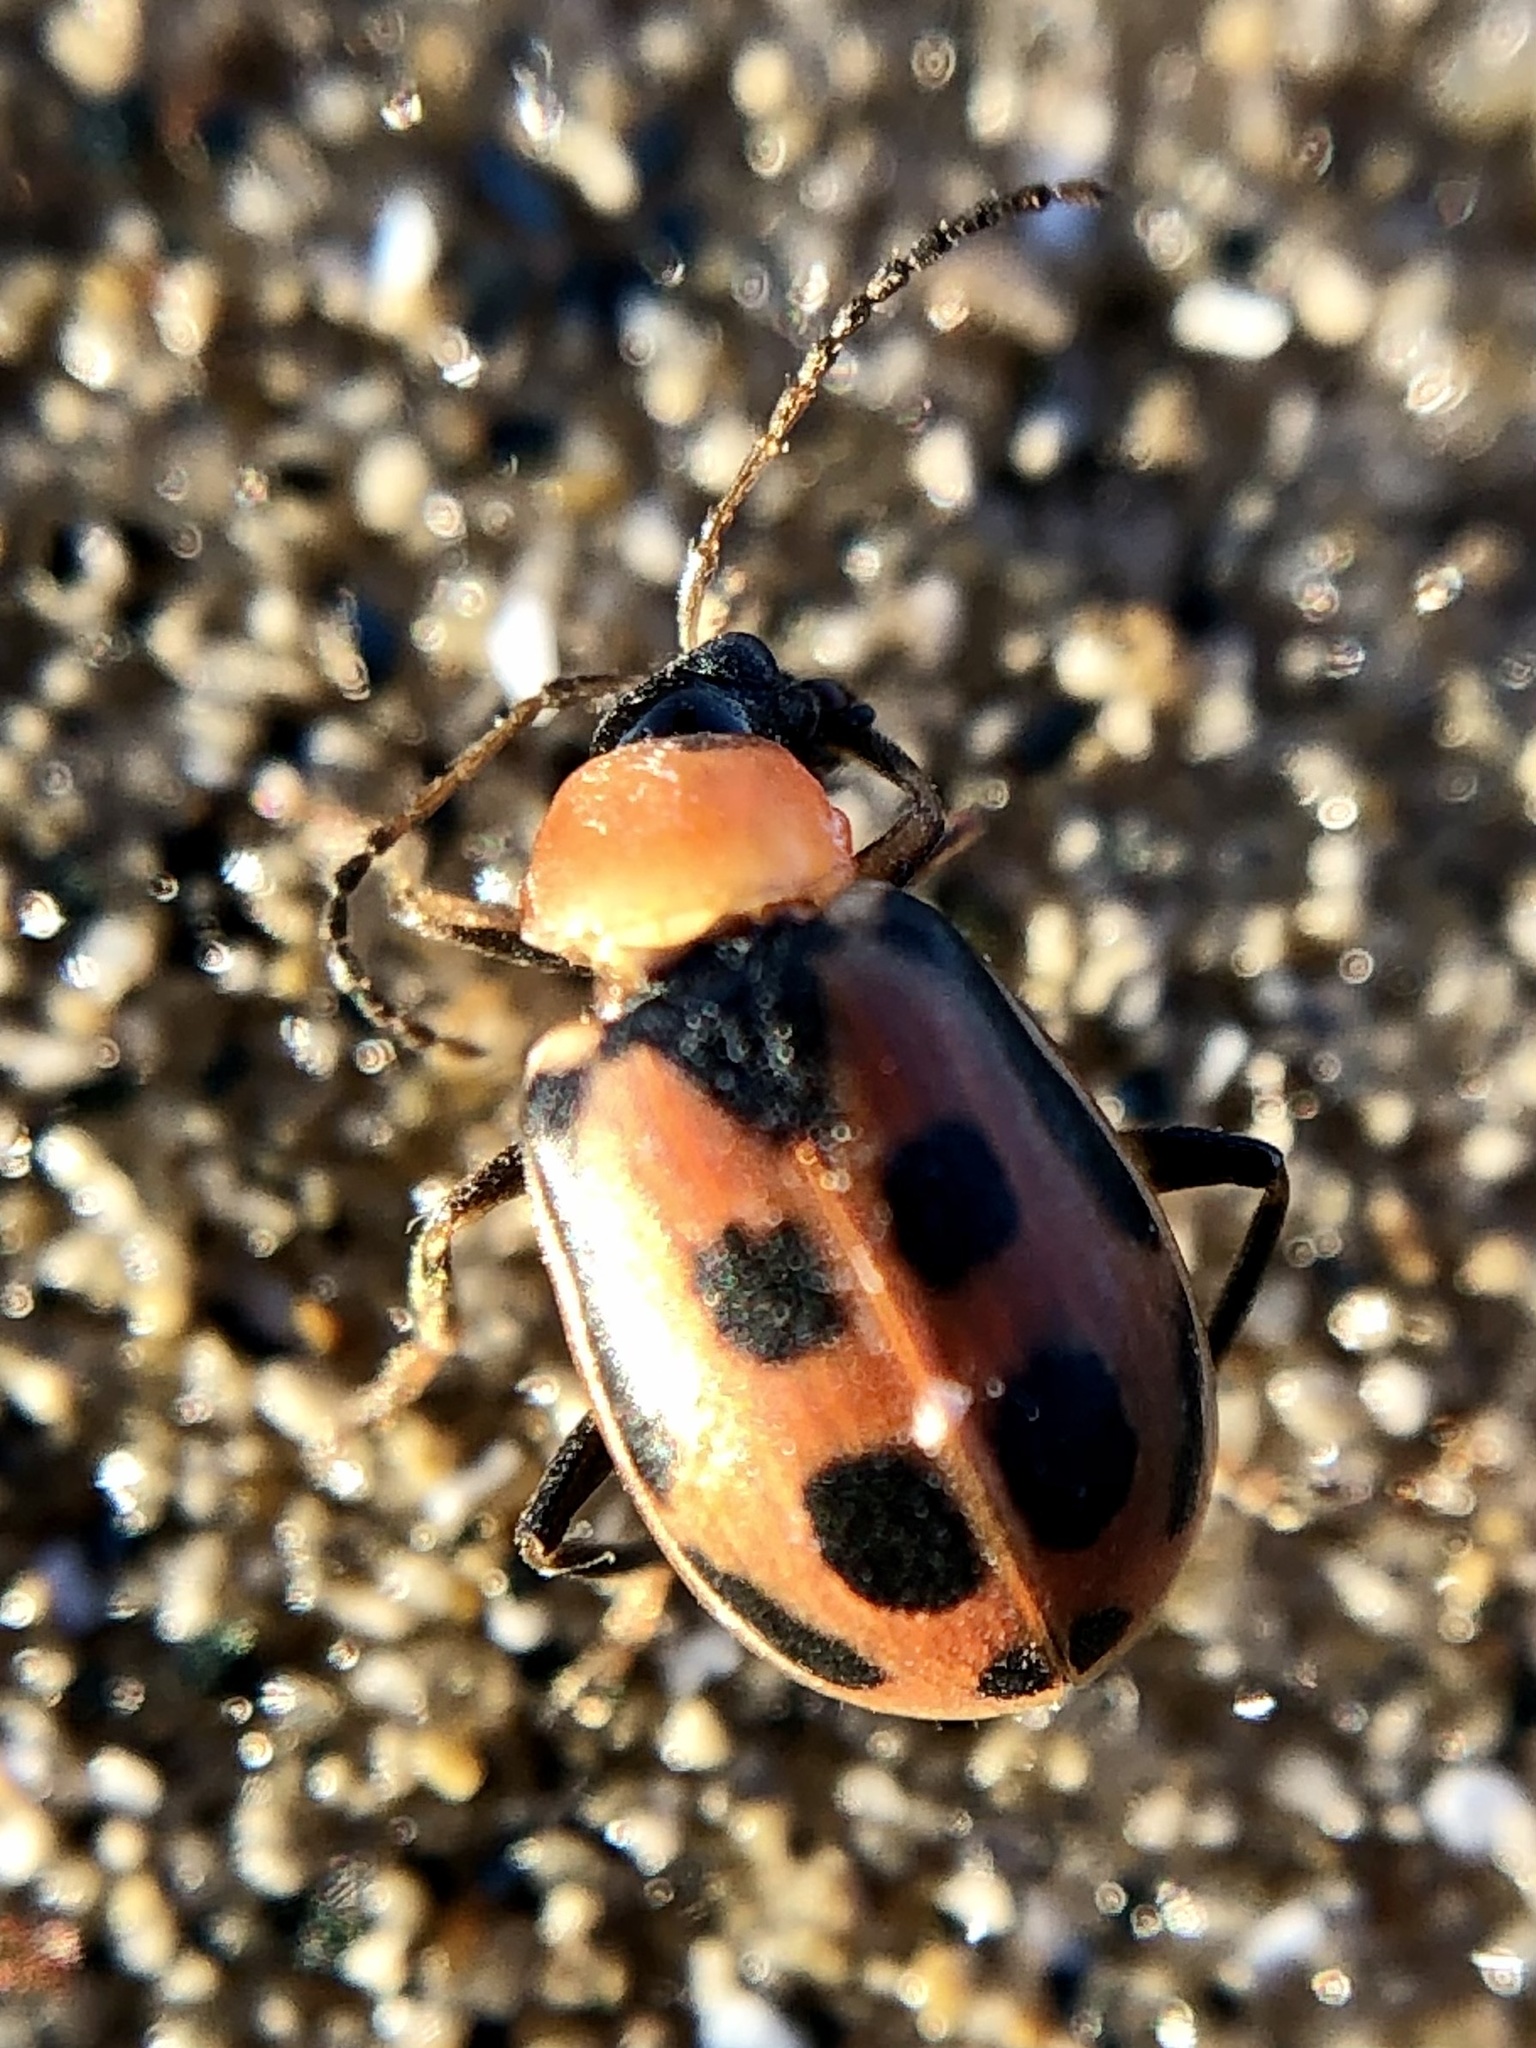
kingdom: Animalia
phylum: Arthropoda
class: Insecta
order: Coleoptera
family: Chrysomelidae
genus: Cerotoma
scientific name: Cerotoma trifurcata
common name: Bean leaf beetle
